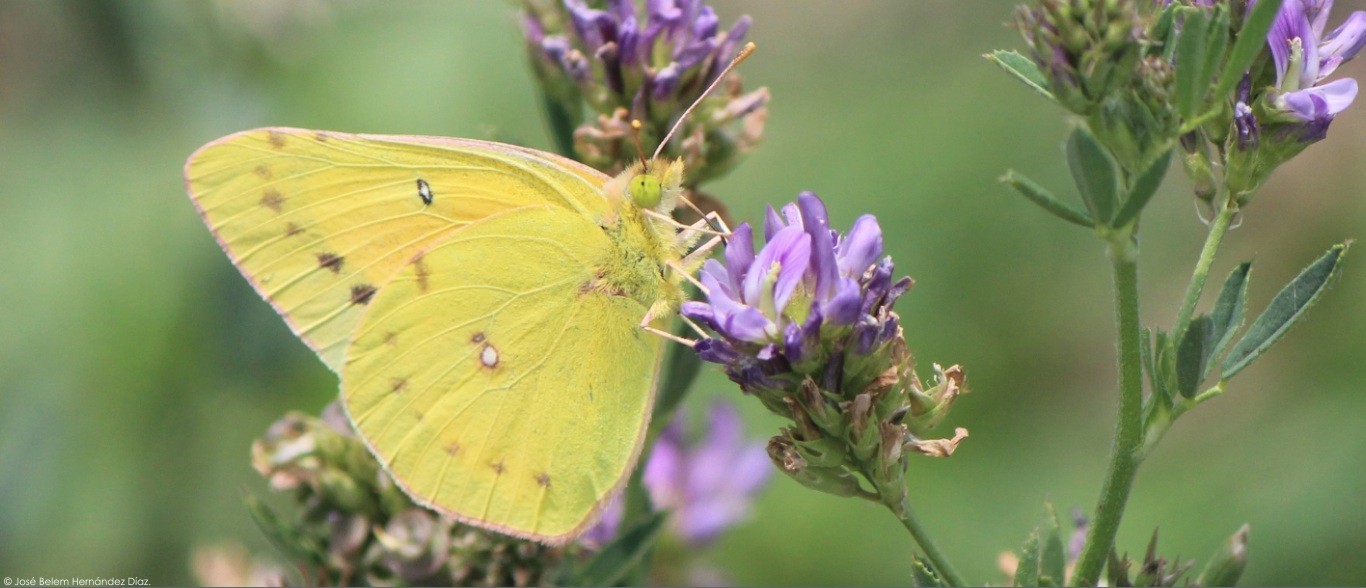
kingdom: Animalia
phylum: Arthropoda
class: Insecta
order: Lepidoptera
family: Pieridae
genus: Colias
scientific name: Colias eurytheme
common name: Alfalfa butterfly
